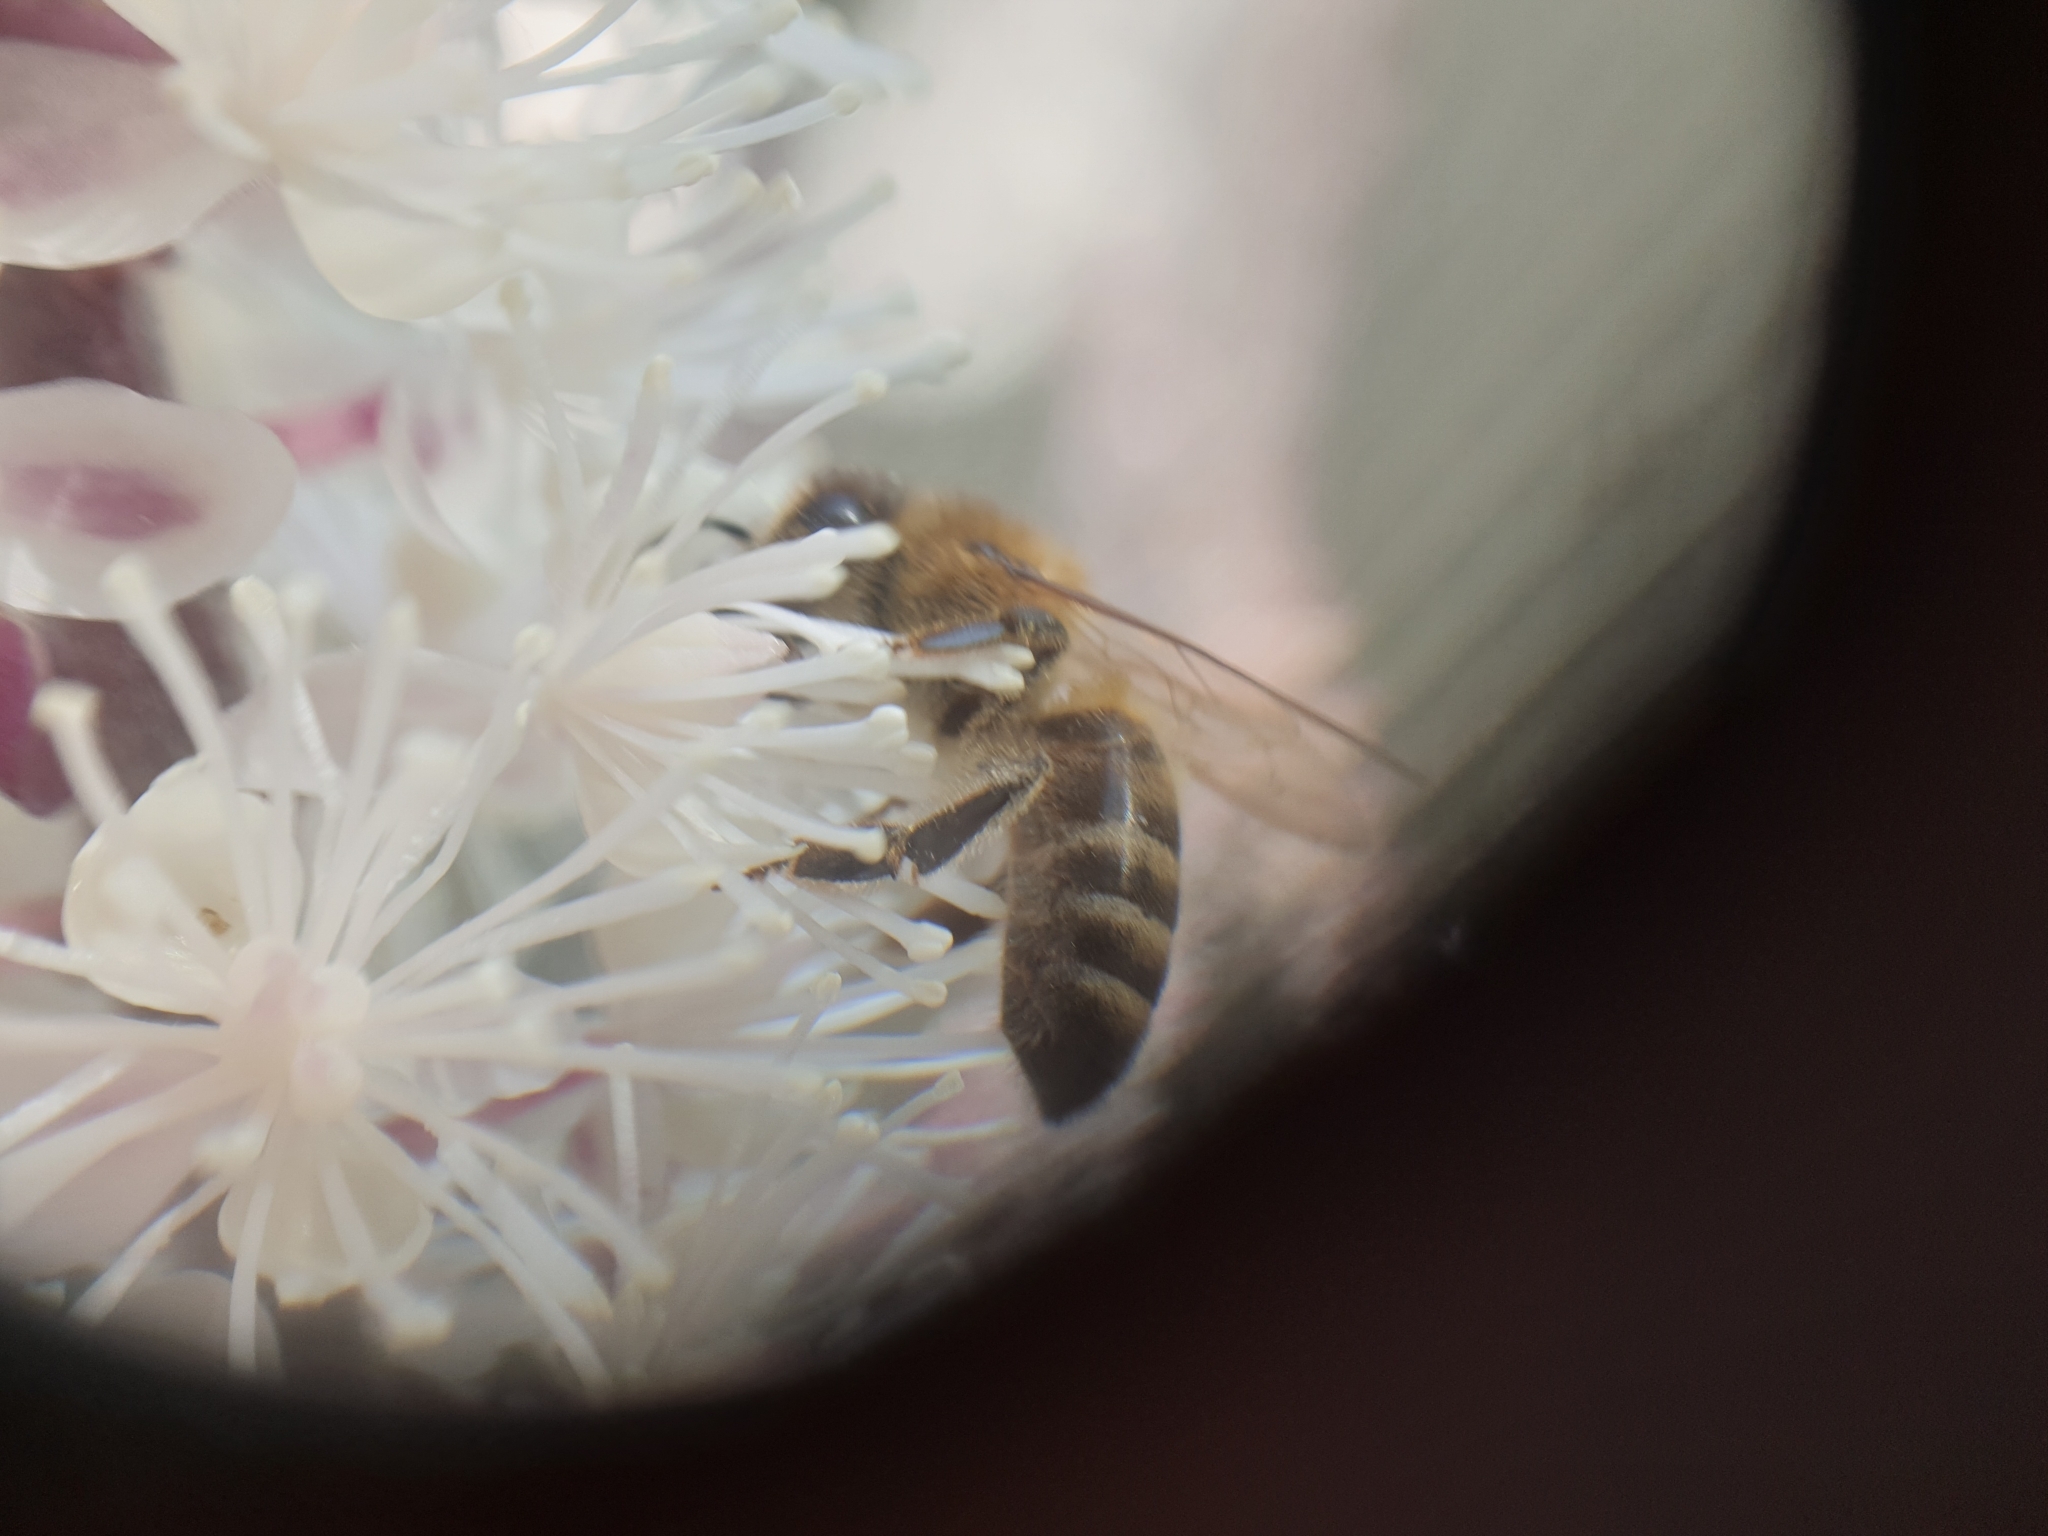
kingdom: Animalia
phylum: Arthropoda
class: Insecta
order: Hymenoptera
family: Apidae
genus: Apis
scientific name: Apis mellifera
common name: Honey bee
